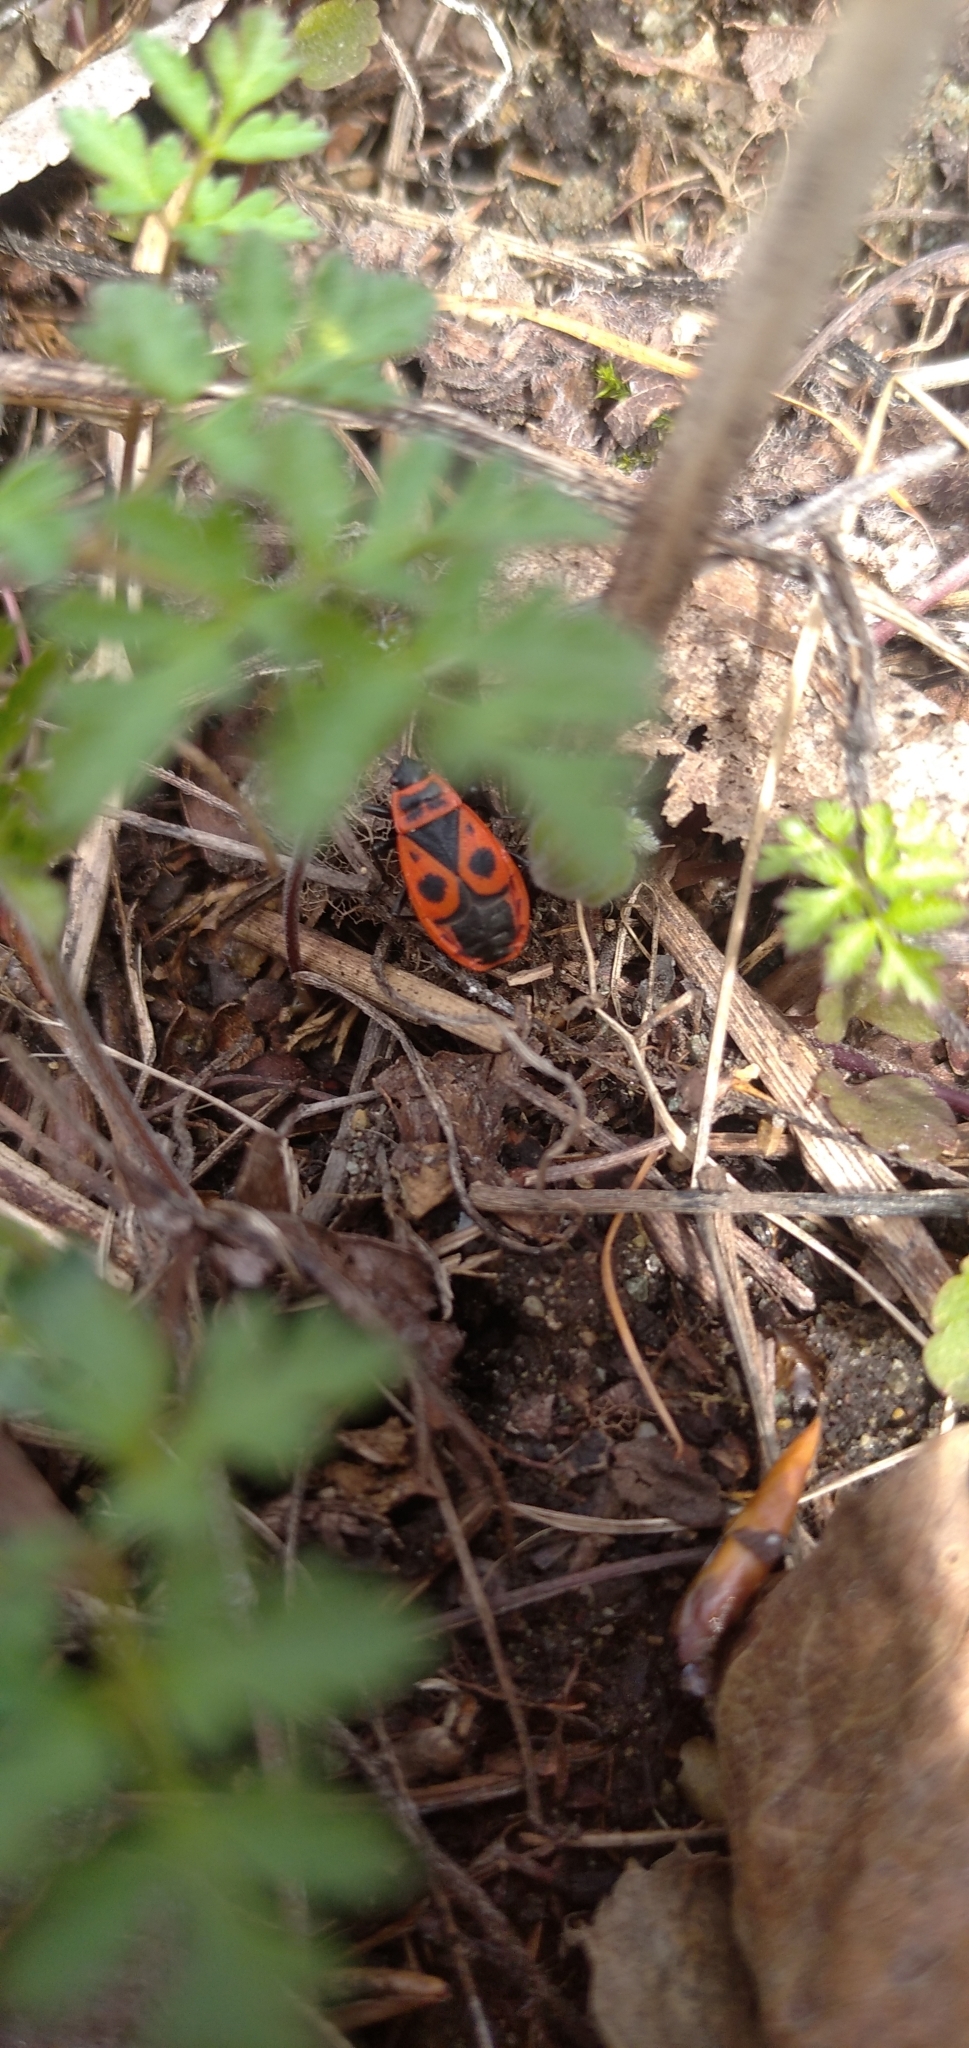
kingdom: Animalia
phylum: Arthropoda
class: Insecta
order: Hemiptera
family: Pyrrhocoridae
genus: Pyrrhocoris
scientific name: Pyrrhocoris apterus
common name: Firebug
